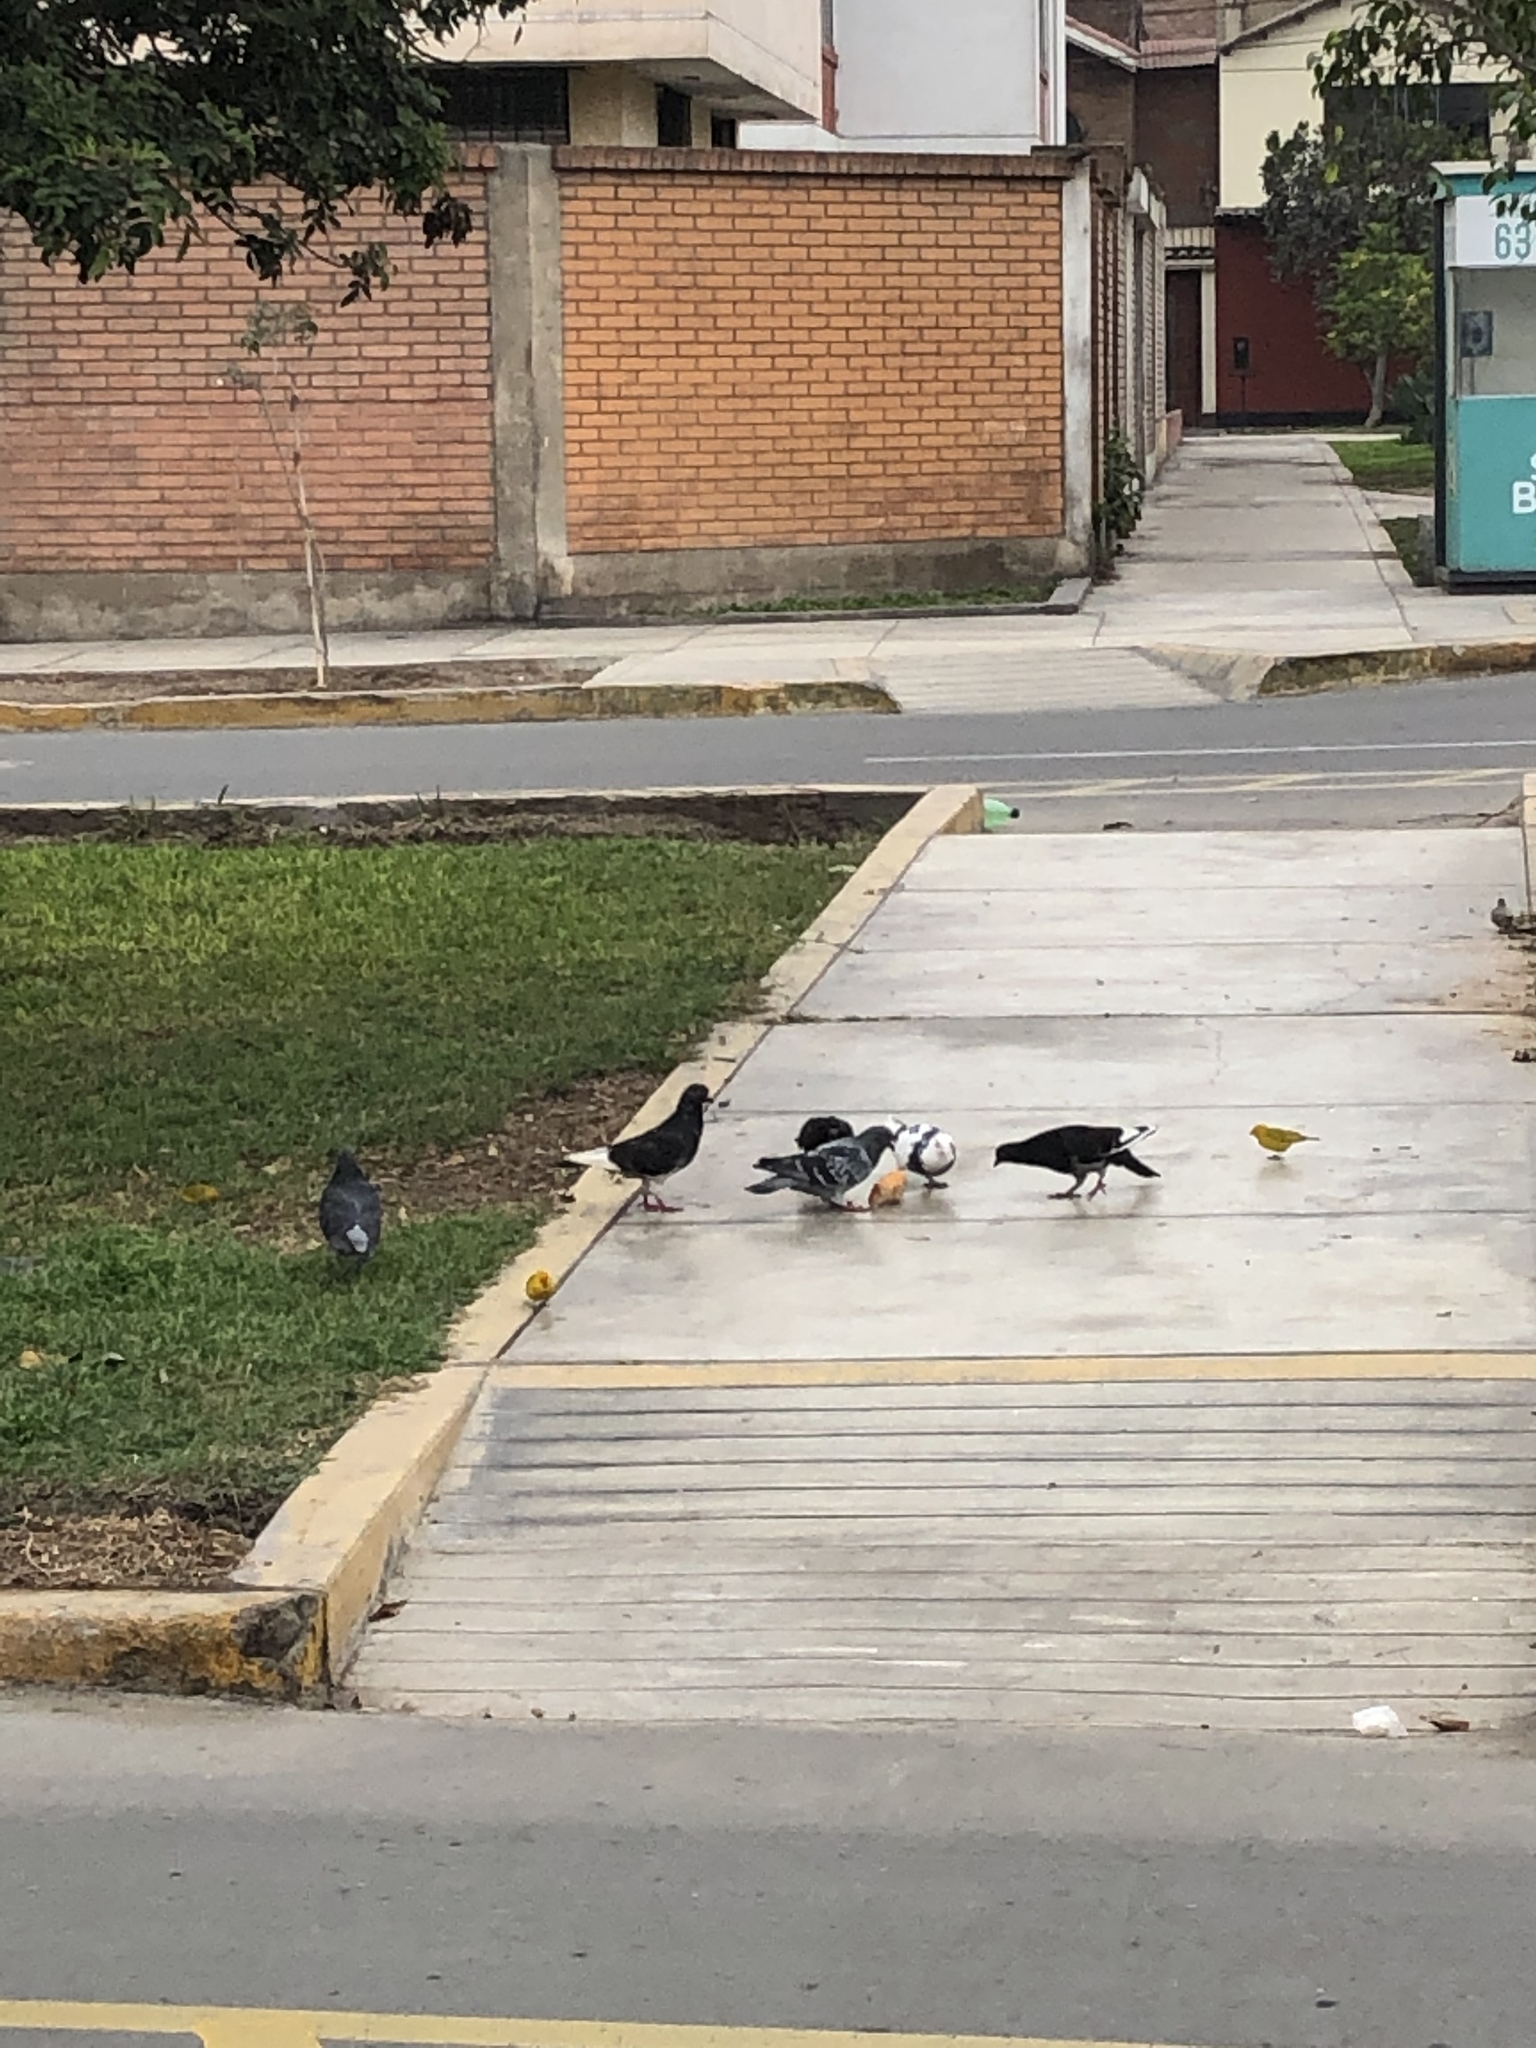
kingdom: Animalia
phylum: Chordata
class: Aves
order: Passeriformes
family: Thraupidae
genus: Sicalis
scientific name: Sicalis flaveola
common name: Saffron finch
